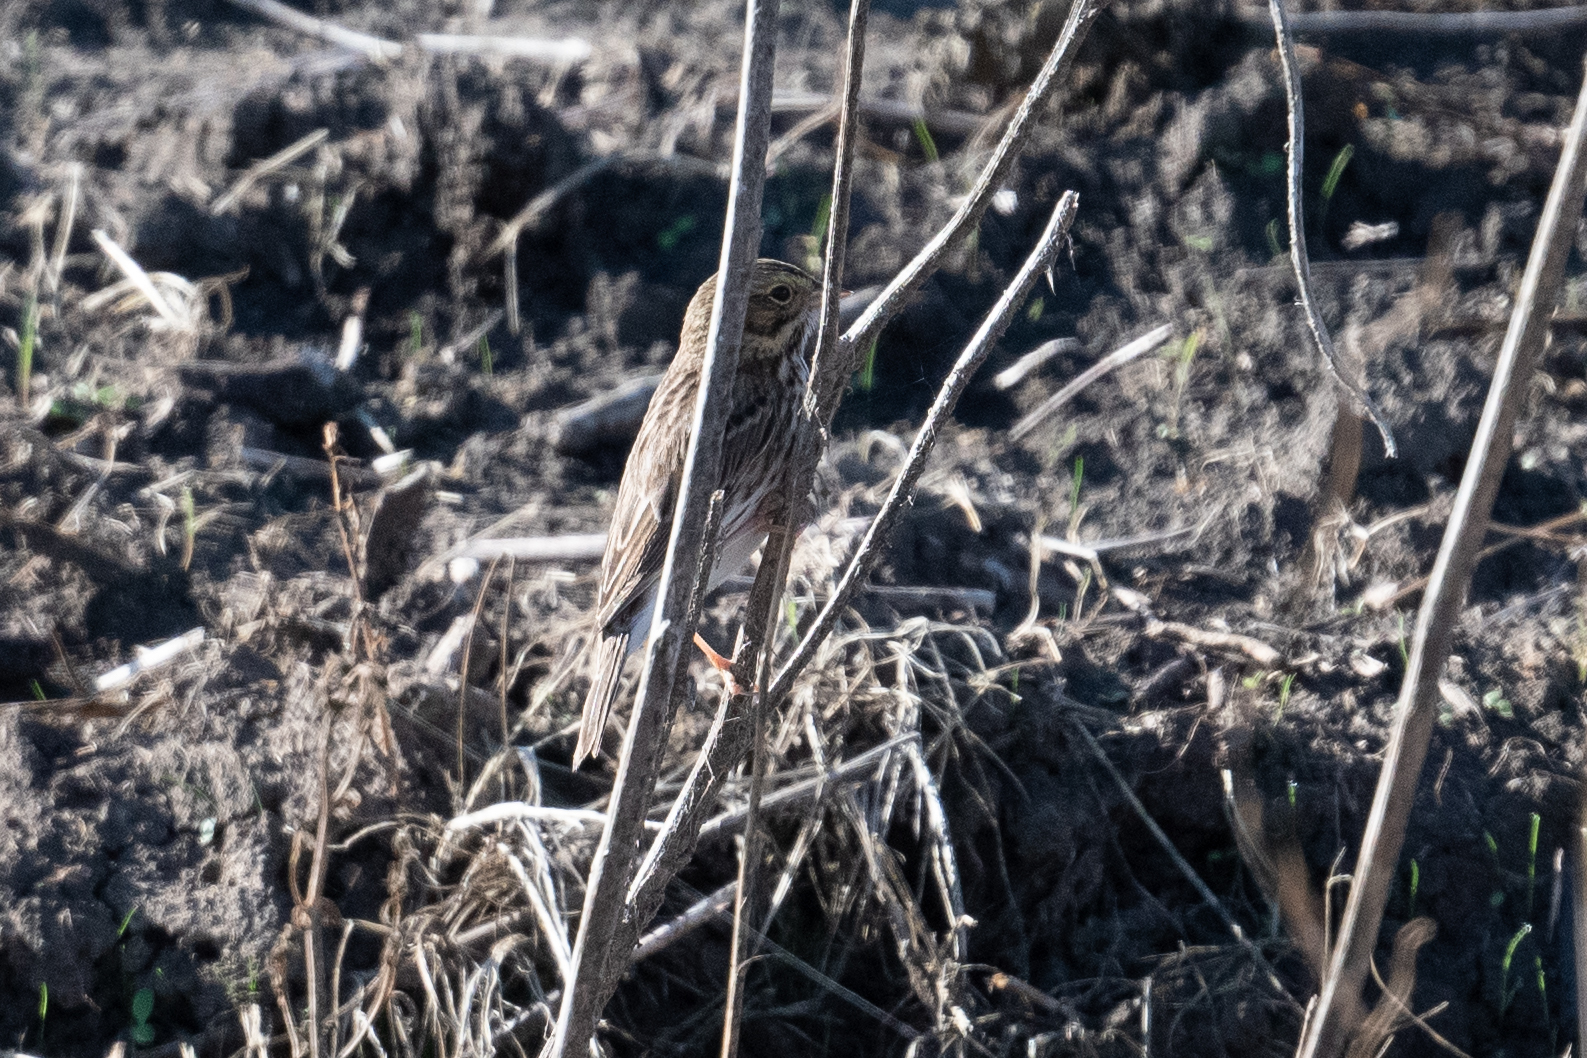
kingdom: Animalia
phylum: Chordata
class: Aves
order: Passeriformes
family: Passerellidae
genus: Passerculus
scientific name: Passerculus sandwichensis
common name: Savannah sparrow
